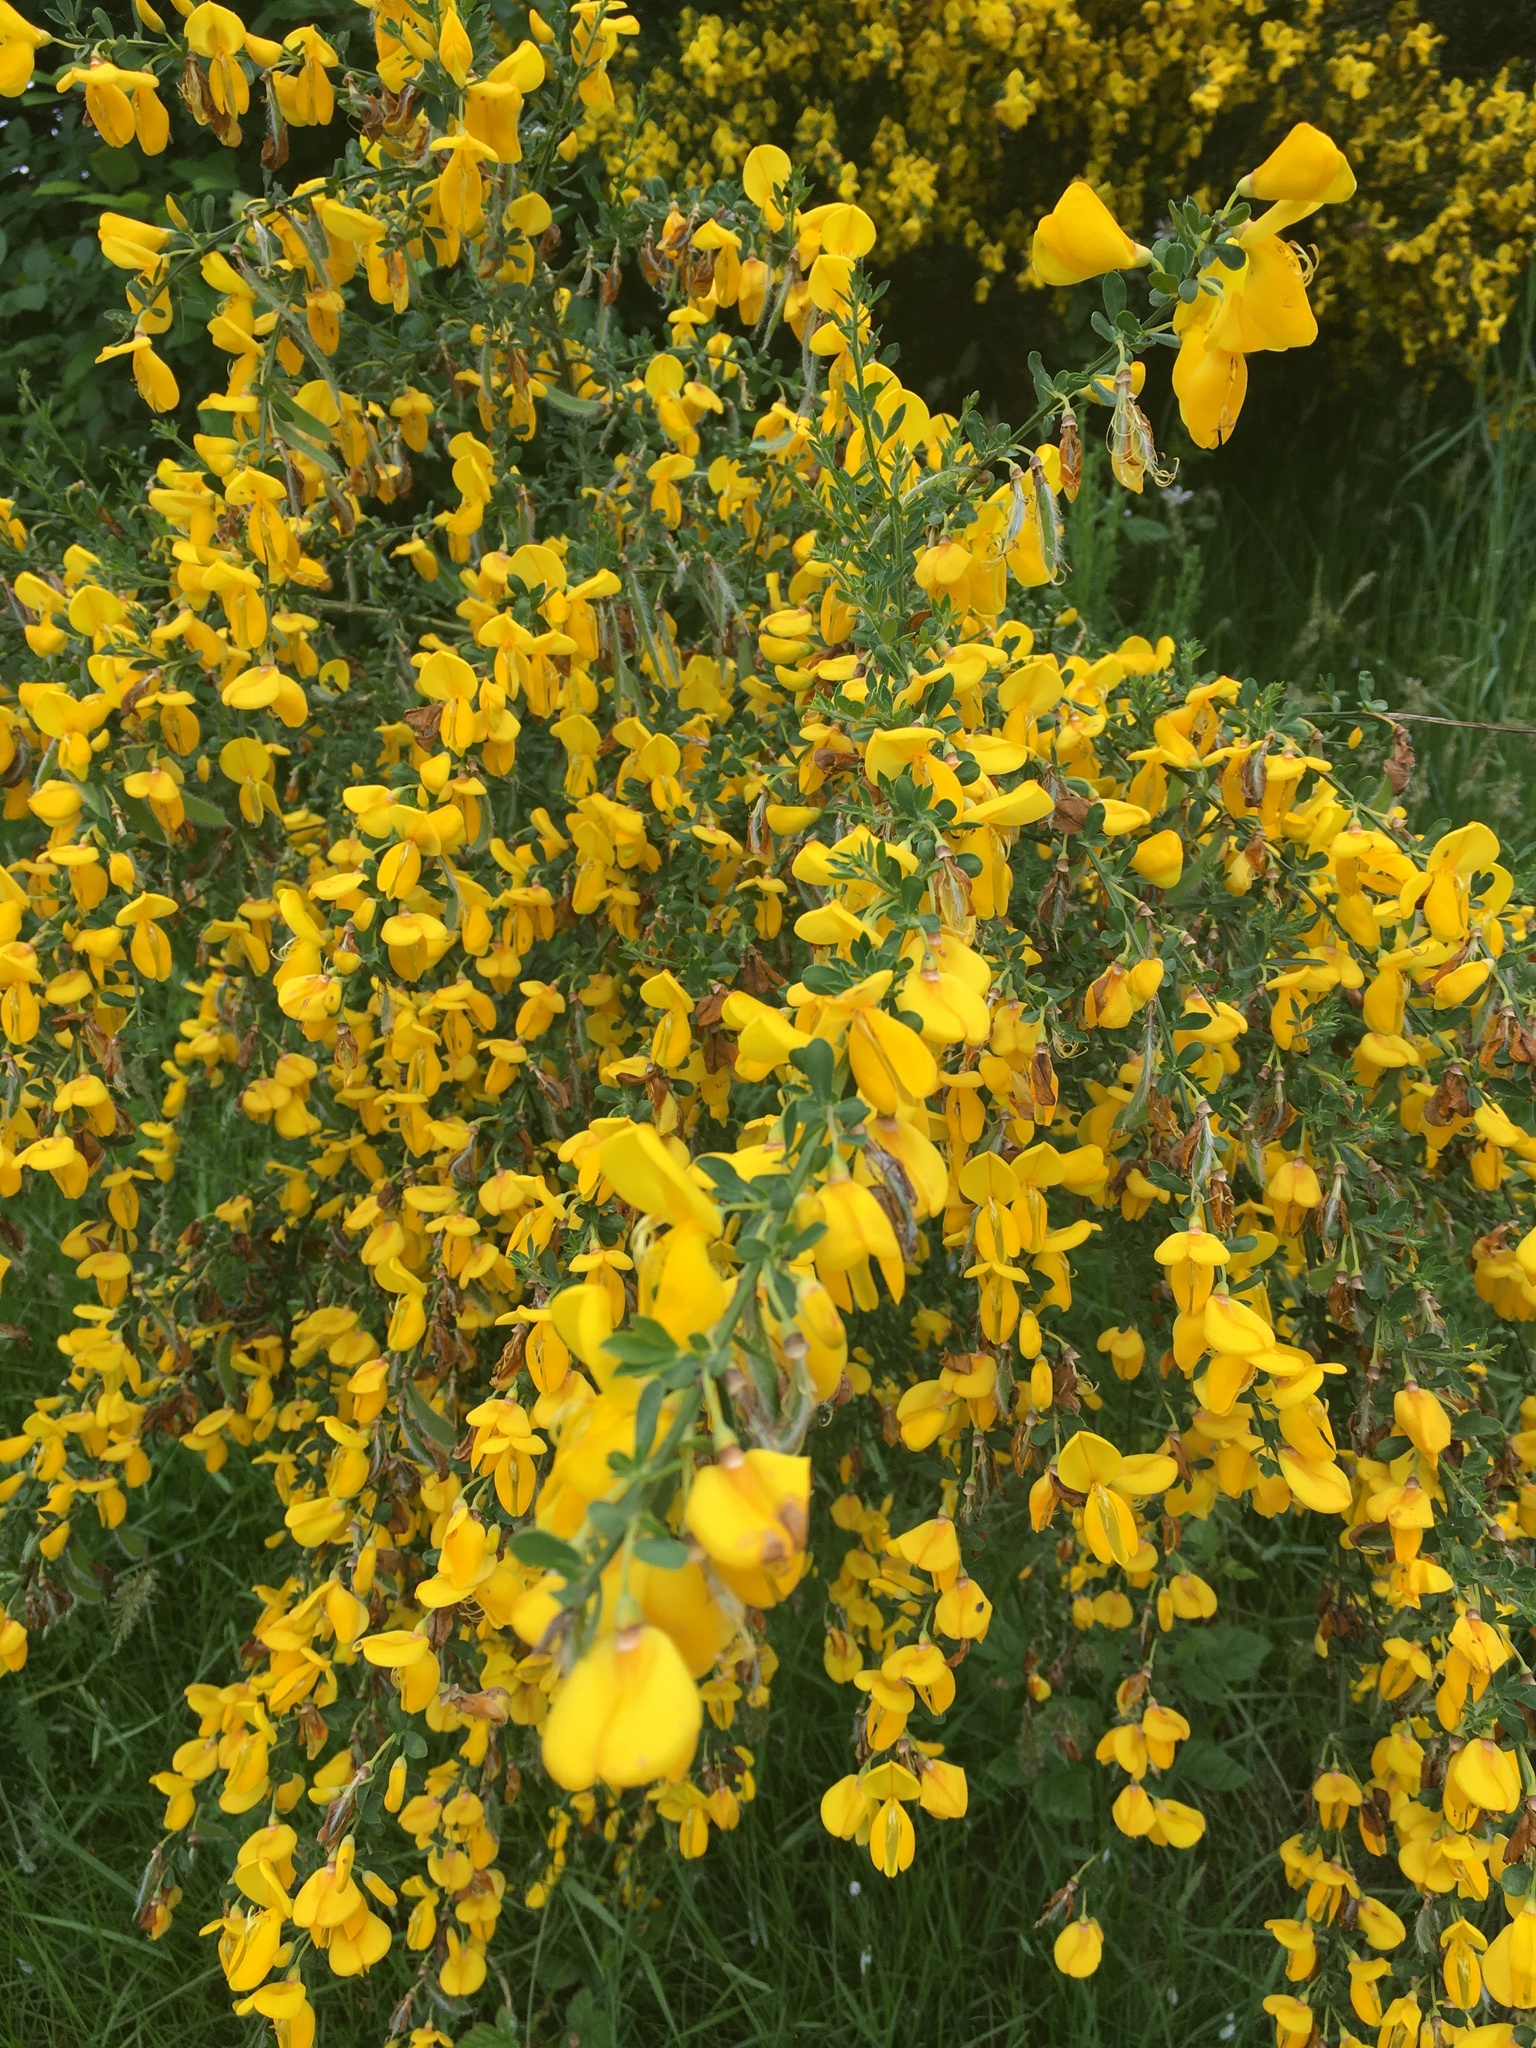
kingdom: Plantae
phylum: Tracheophyta
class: Magnoliopsida
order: Fabales
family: Fabaceae
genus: Cytisus
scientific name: Cytisus scoparius
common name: Scotch broom
